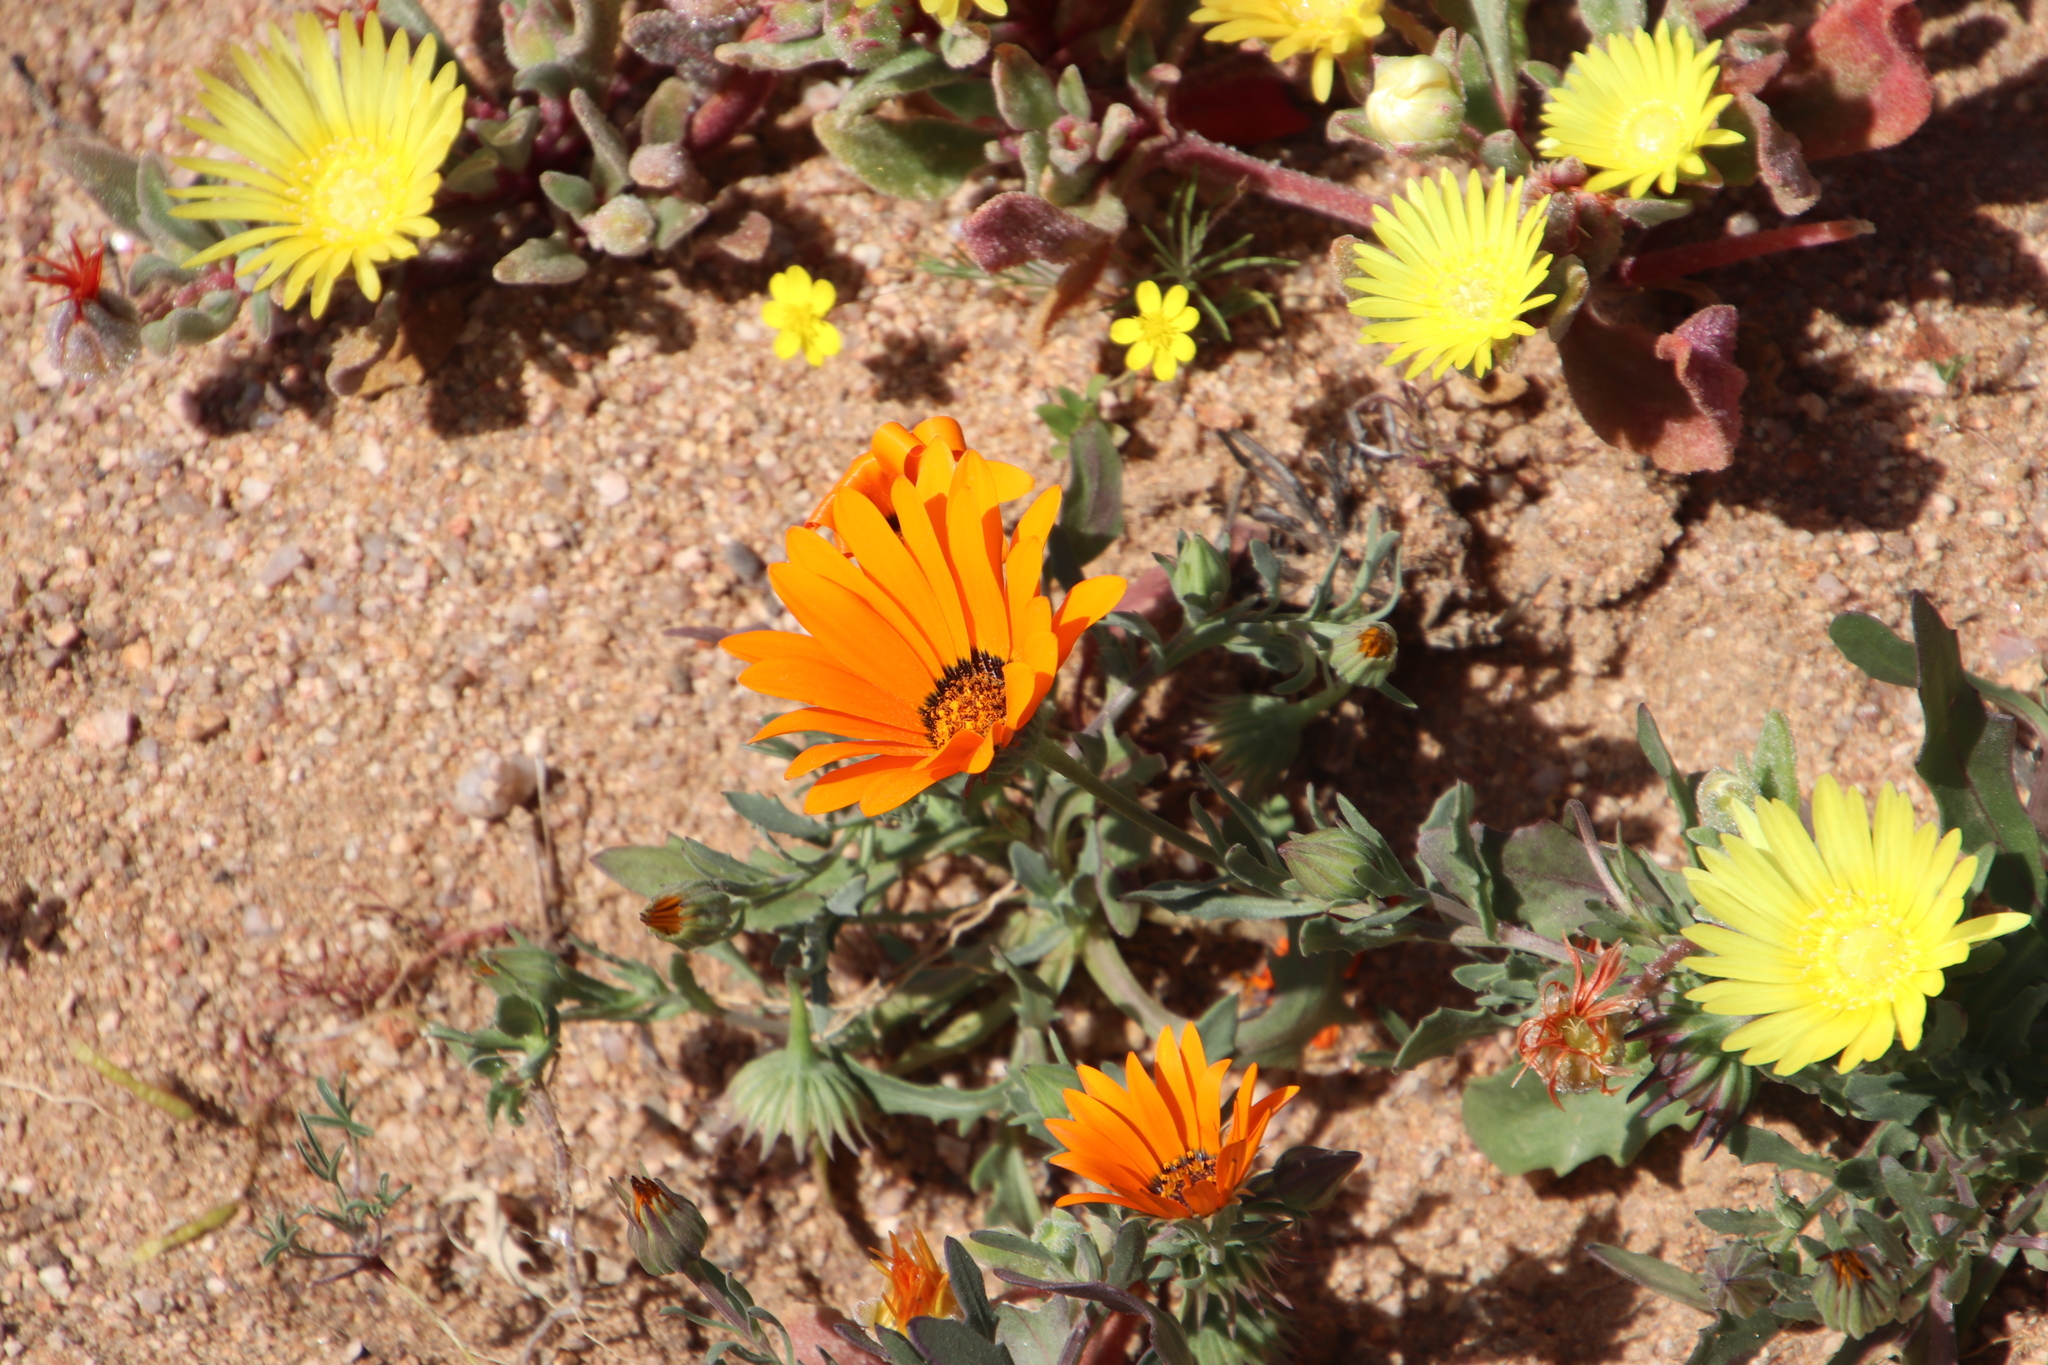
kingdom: Plantae
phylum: Tracheophyta
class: Magnoliopsida
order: Asterales
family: Asteraceae
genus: Dimorphotheca
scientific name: Dimorphotheca sinuata
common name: Glandular cape marigold
